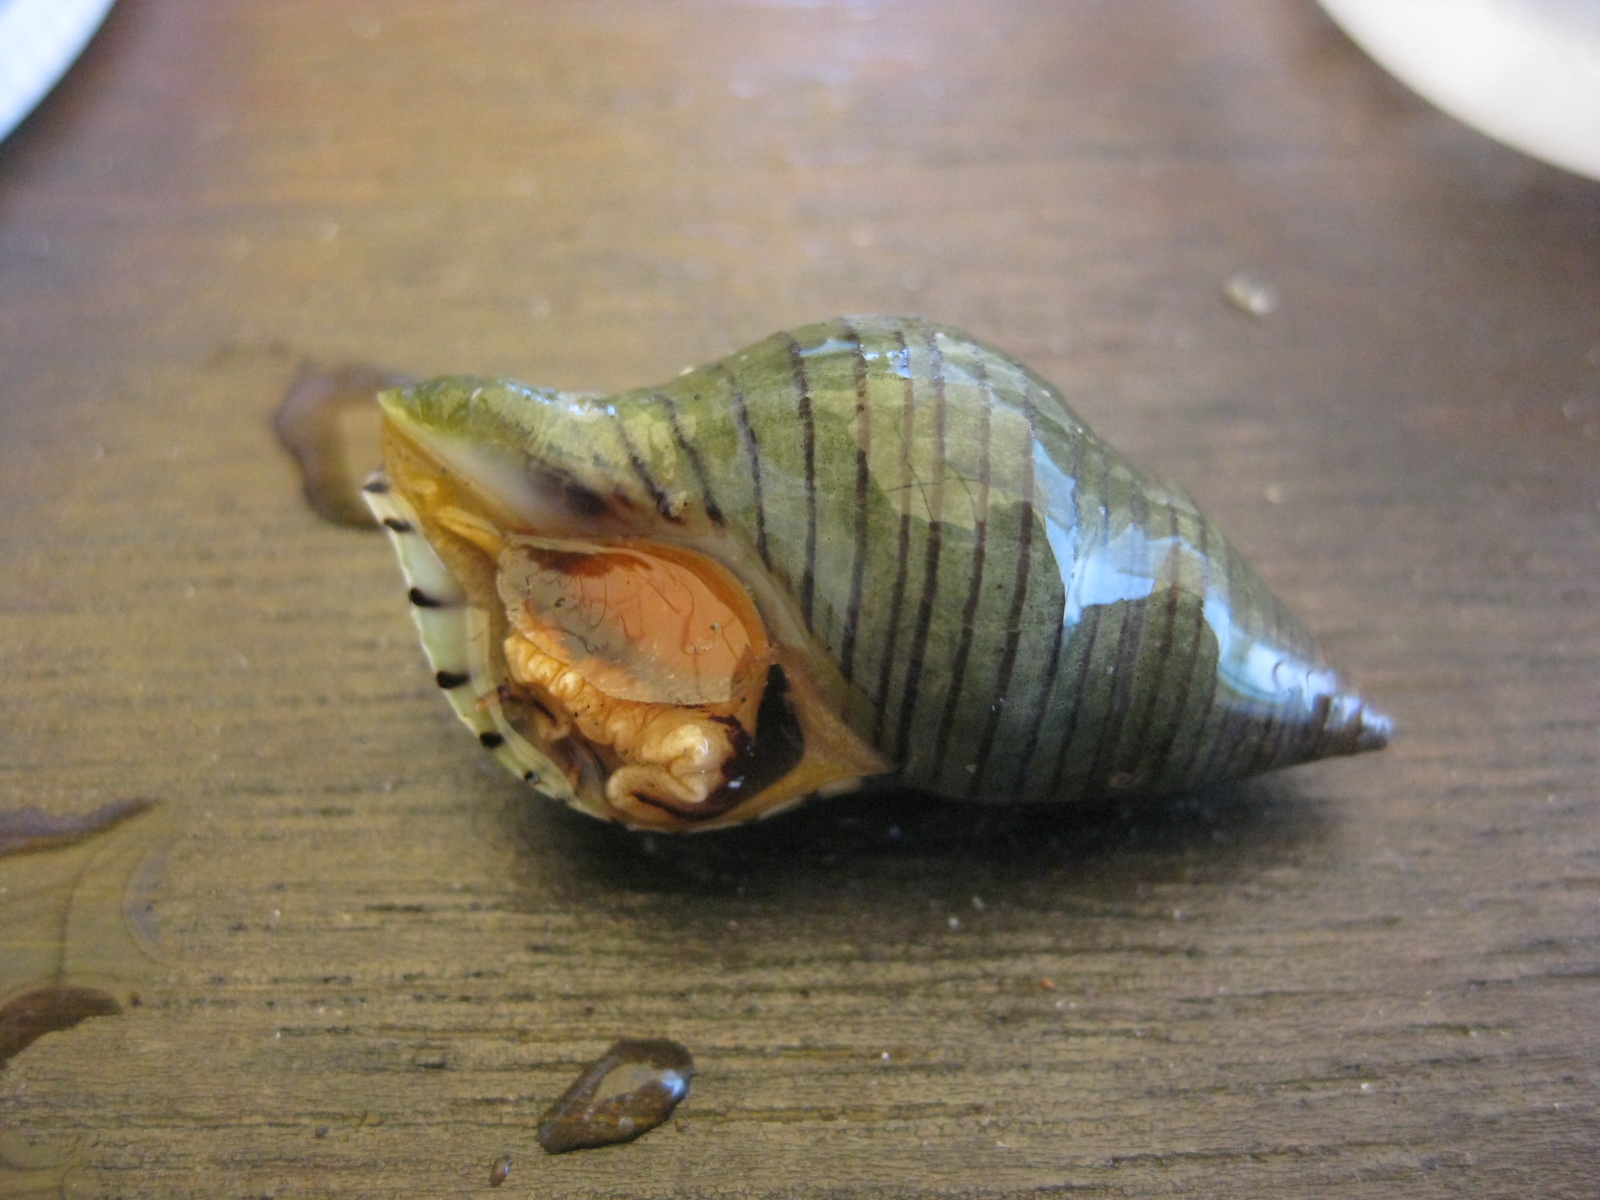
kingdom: Animalia
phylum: Mollusca
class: Gastropoda
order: Neogastropoda
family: Tudiclidae
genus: Buccinulum
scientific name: Buccinulum linea
